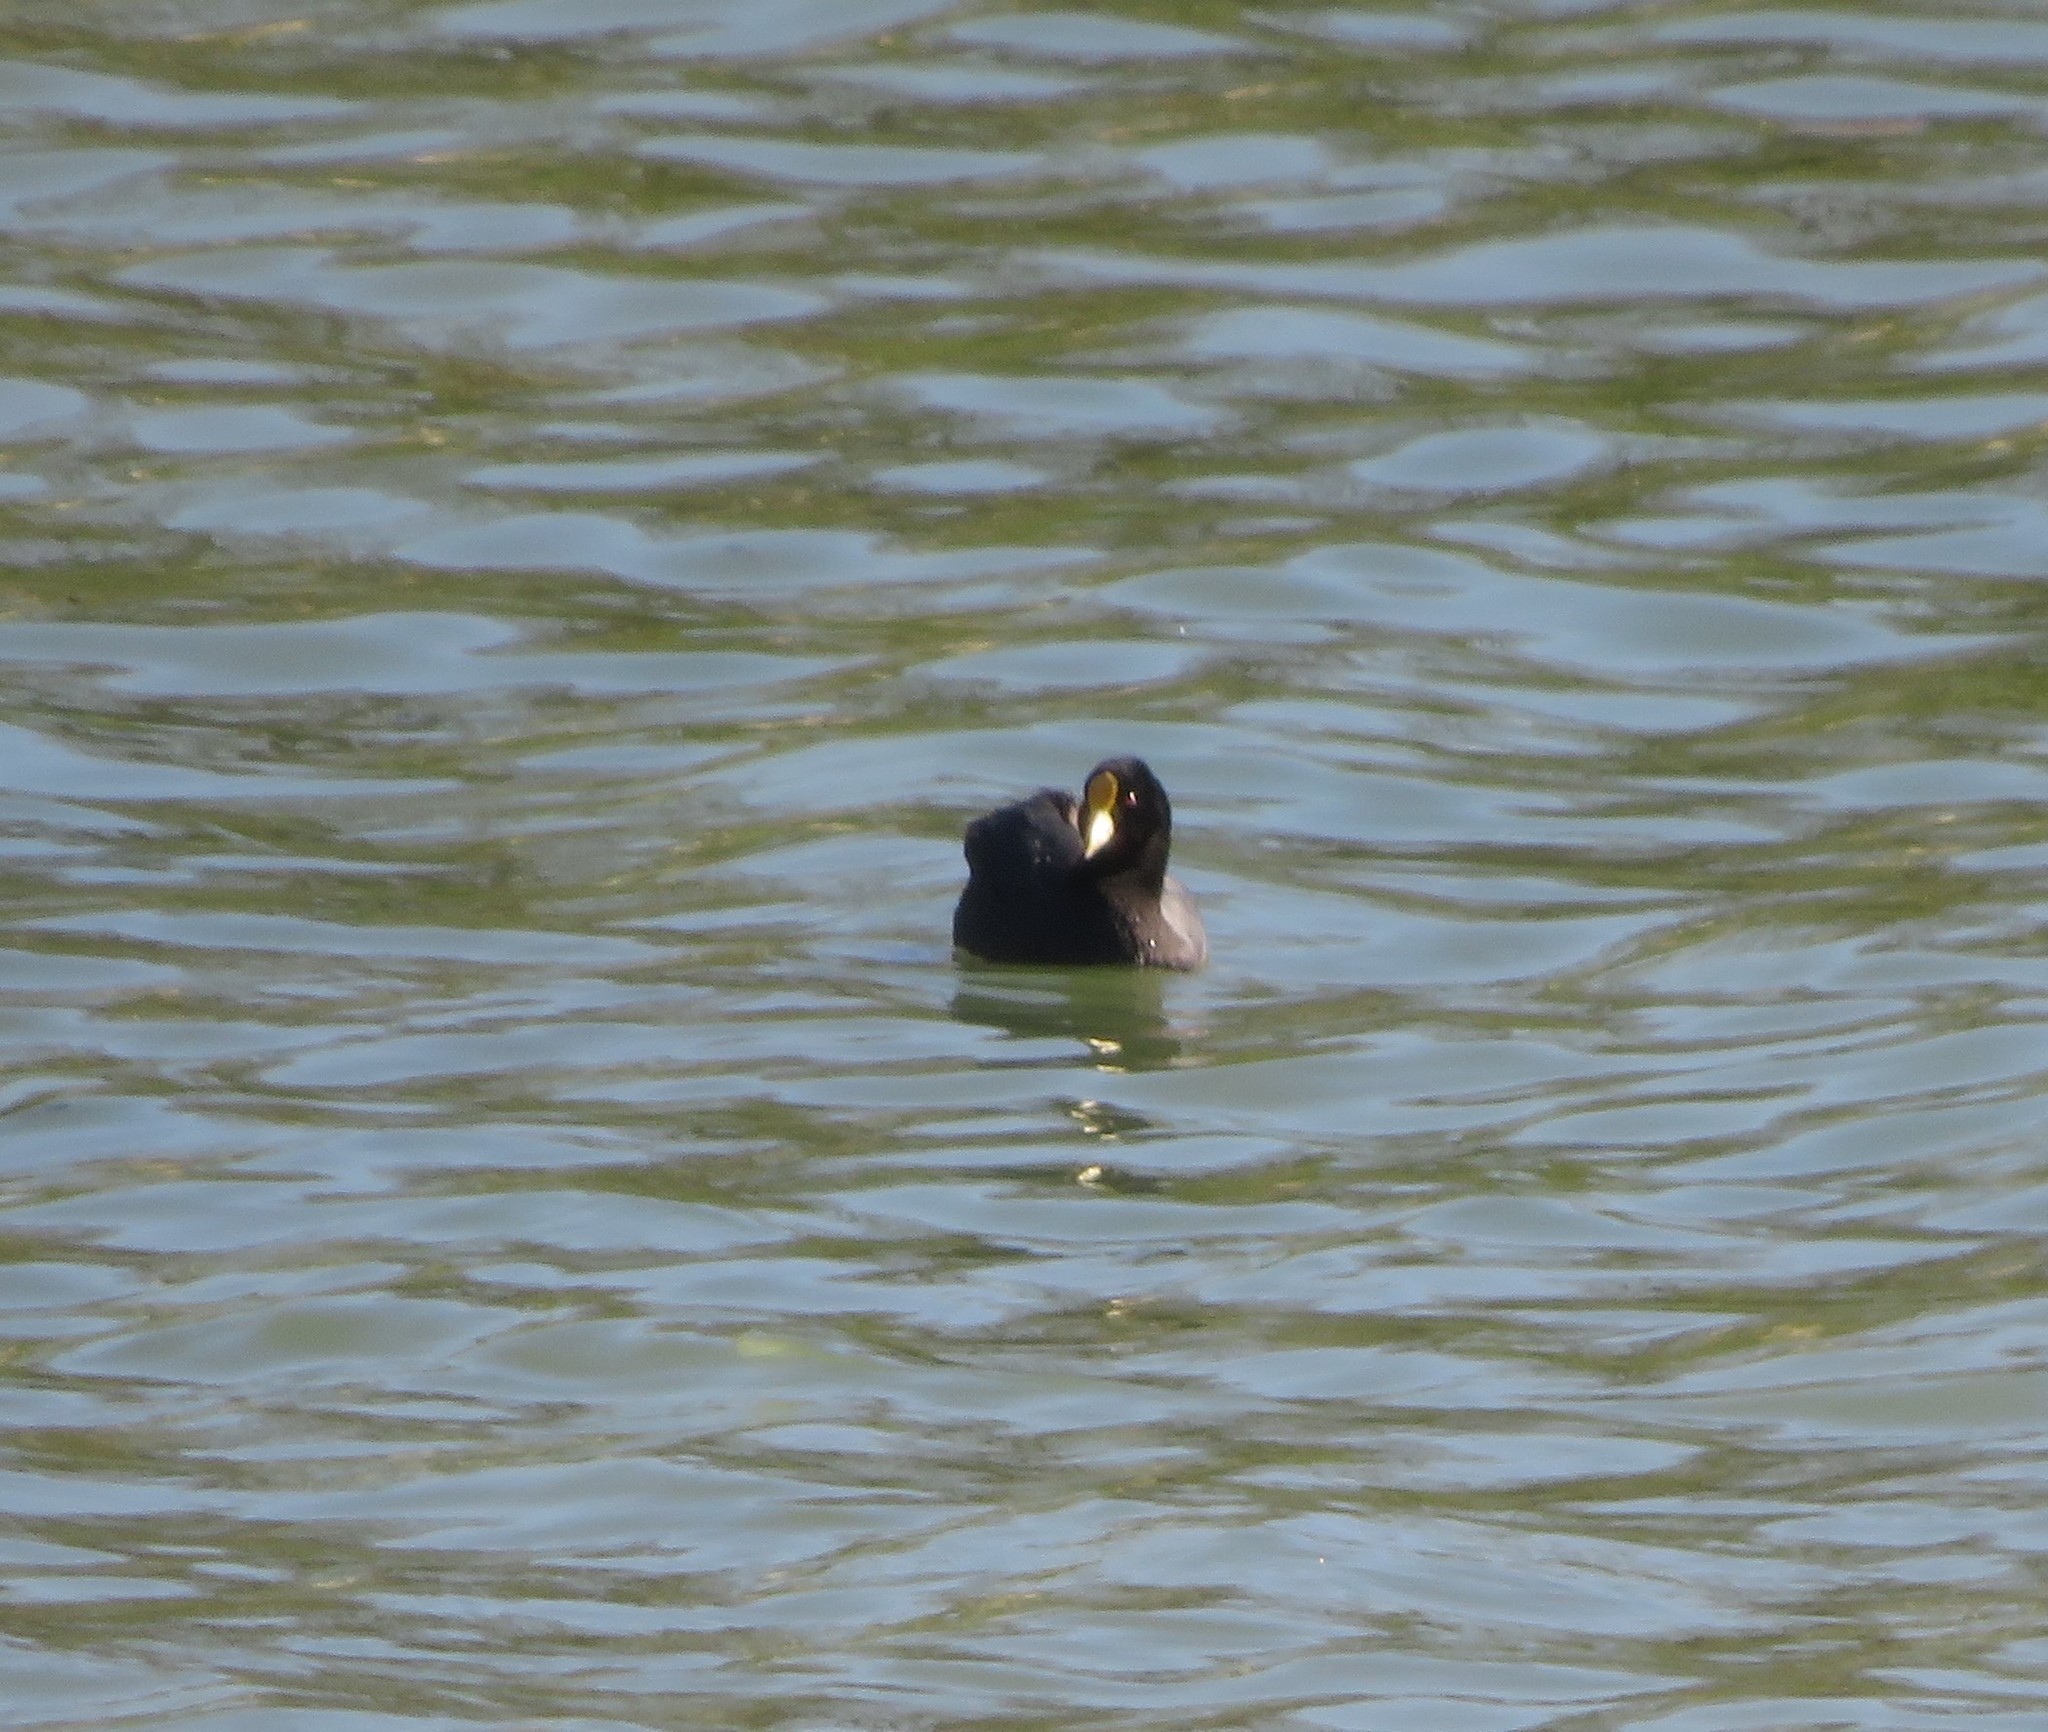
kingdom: Animalia
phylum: Chordata
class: Aves
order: Gruiformes
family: Rallidae
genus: Fulica
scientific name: Fulica leucoptera
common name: White-winged coot
